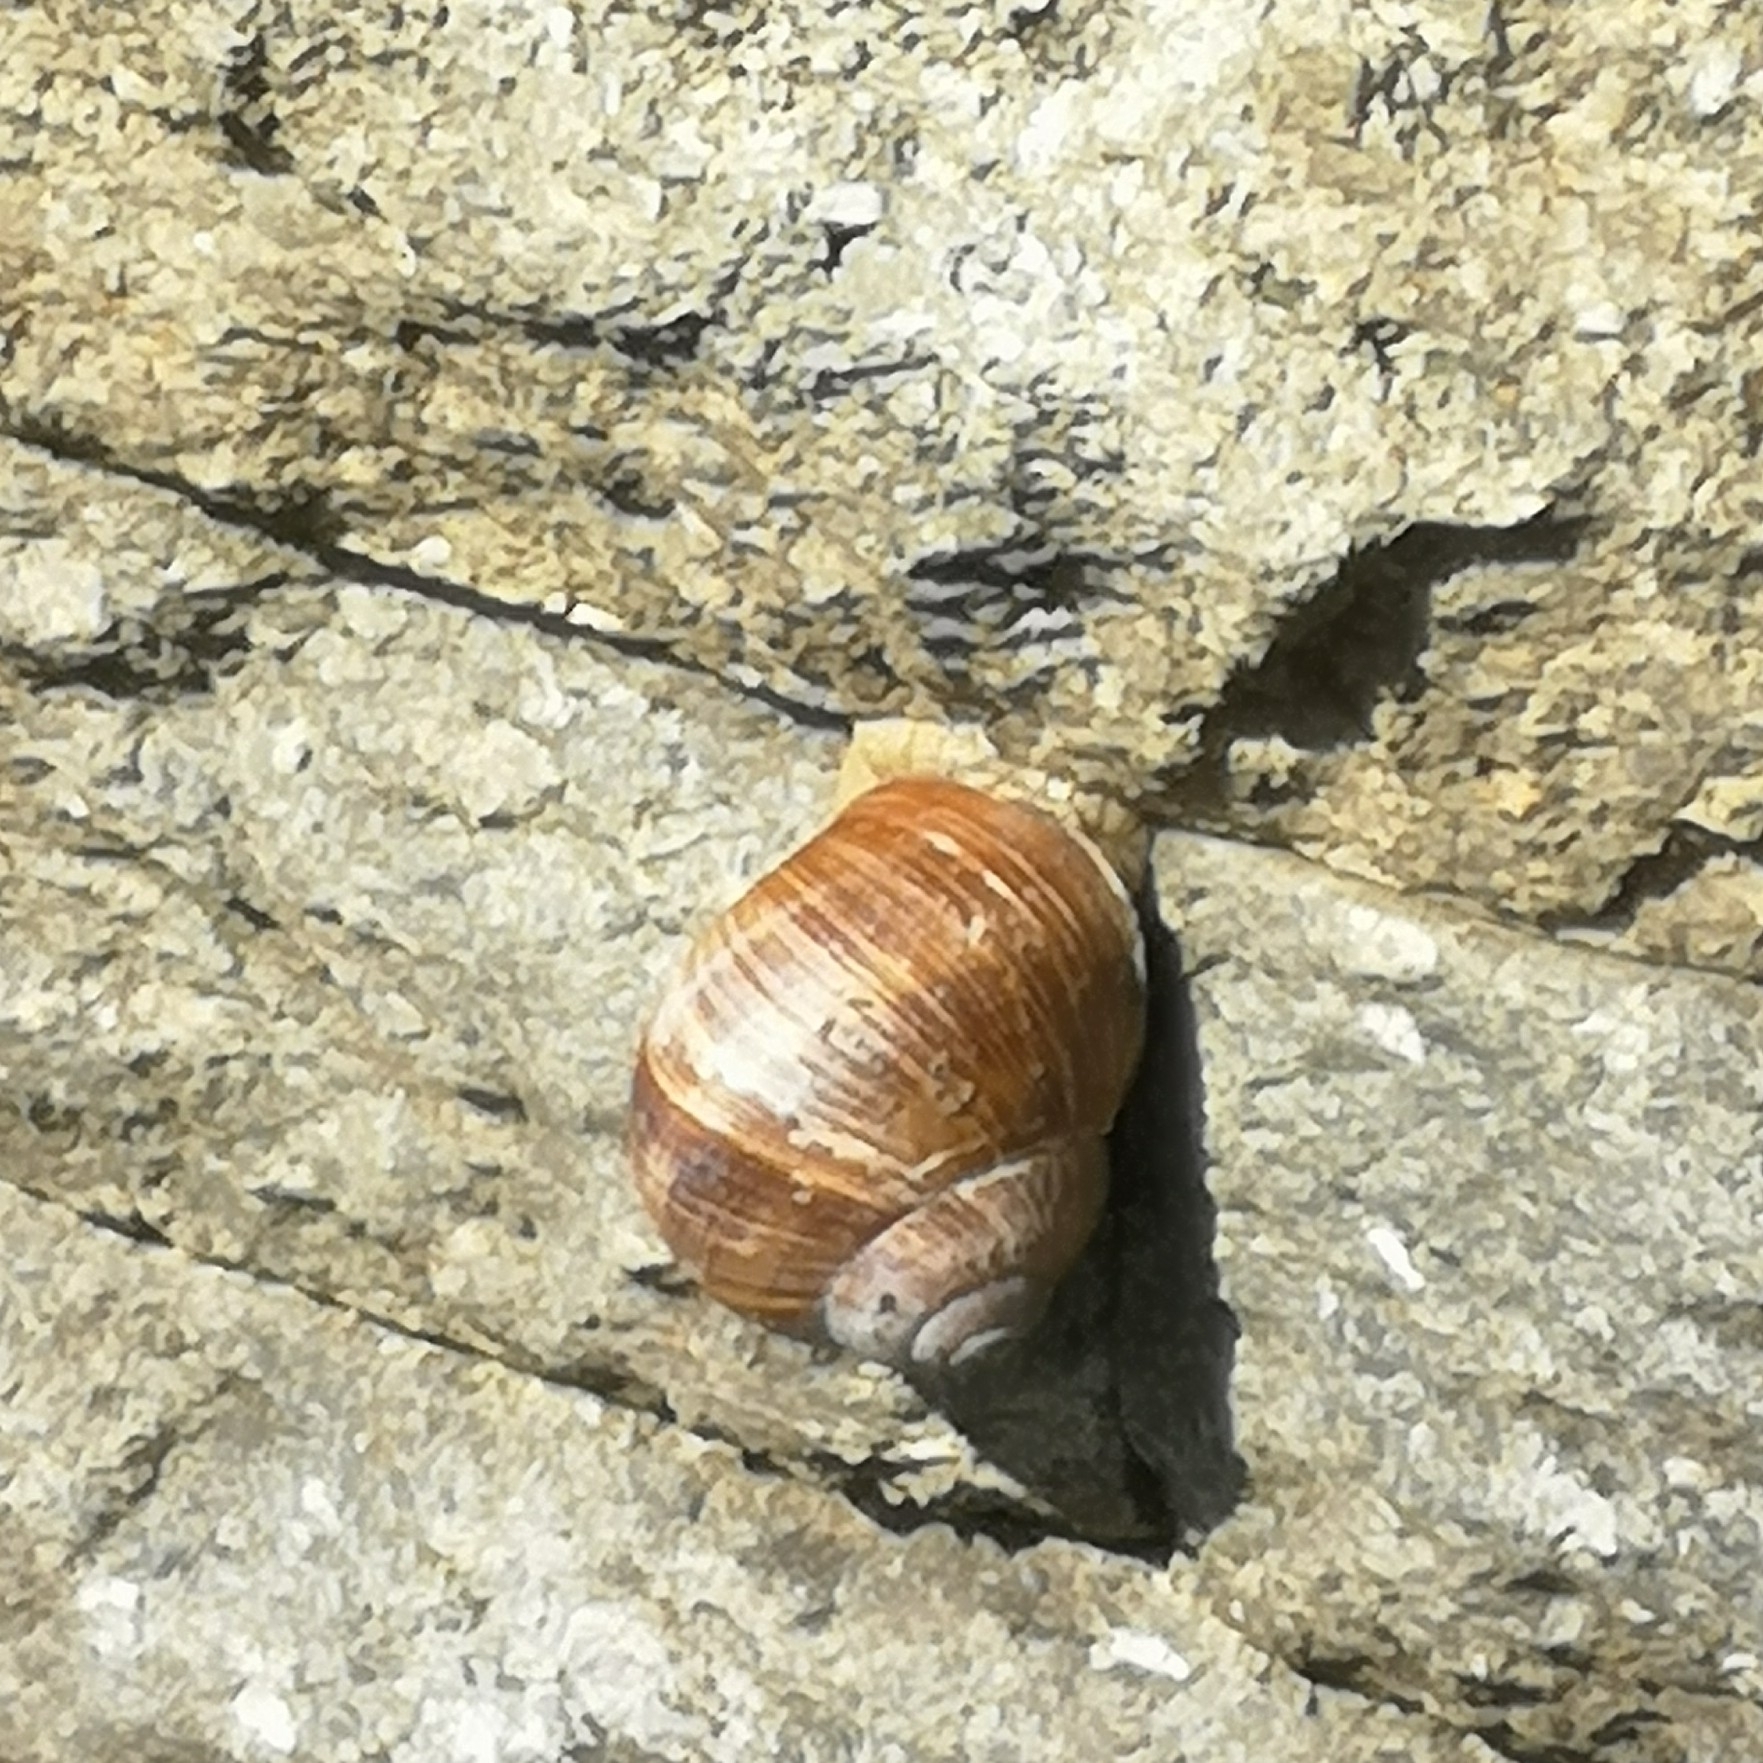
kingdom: Animalia
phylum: Mollusca
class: Gastropoda
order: Stylommatophora
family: Helicidae
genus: Helix
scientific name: Helix pomatia
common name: Roman snail
